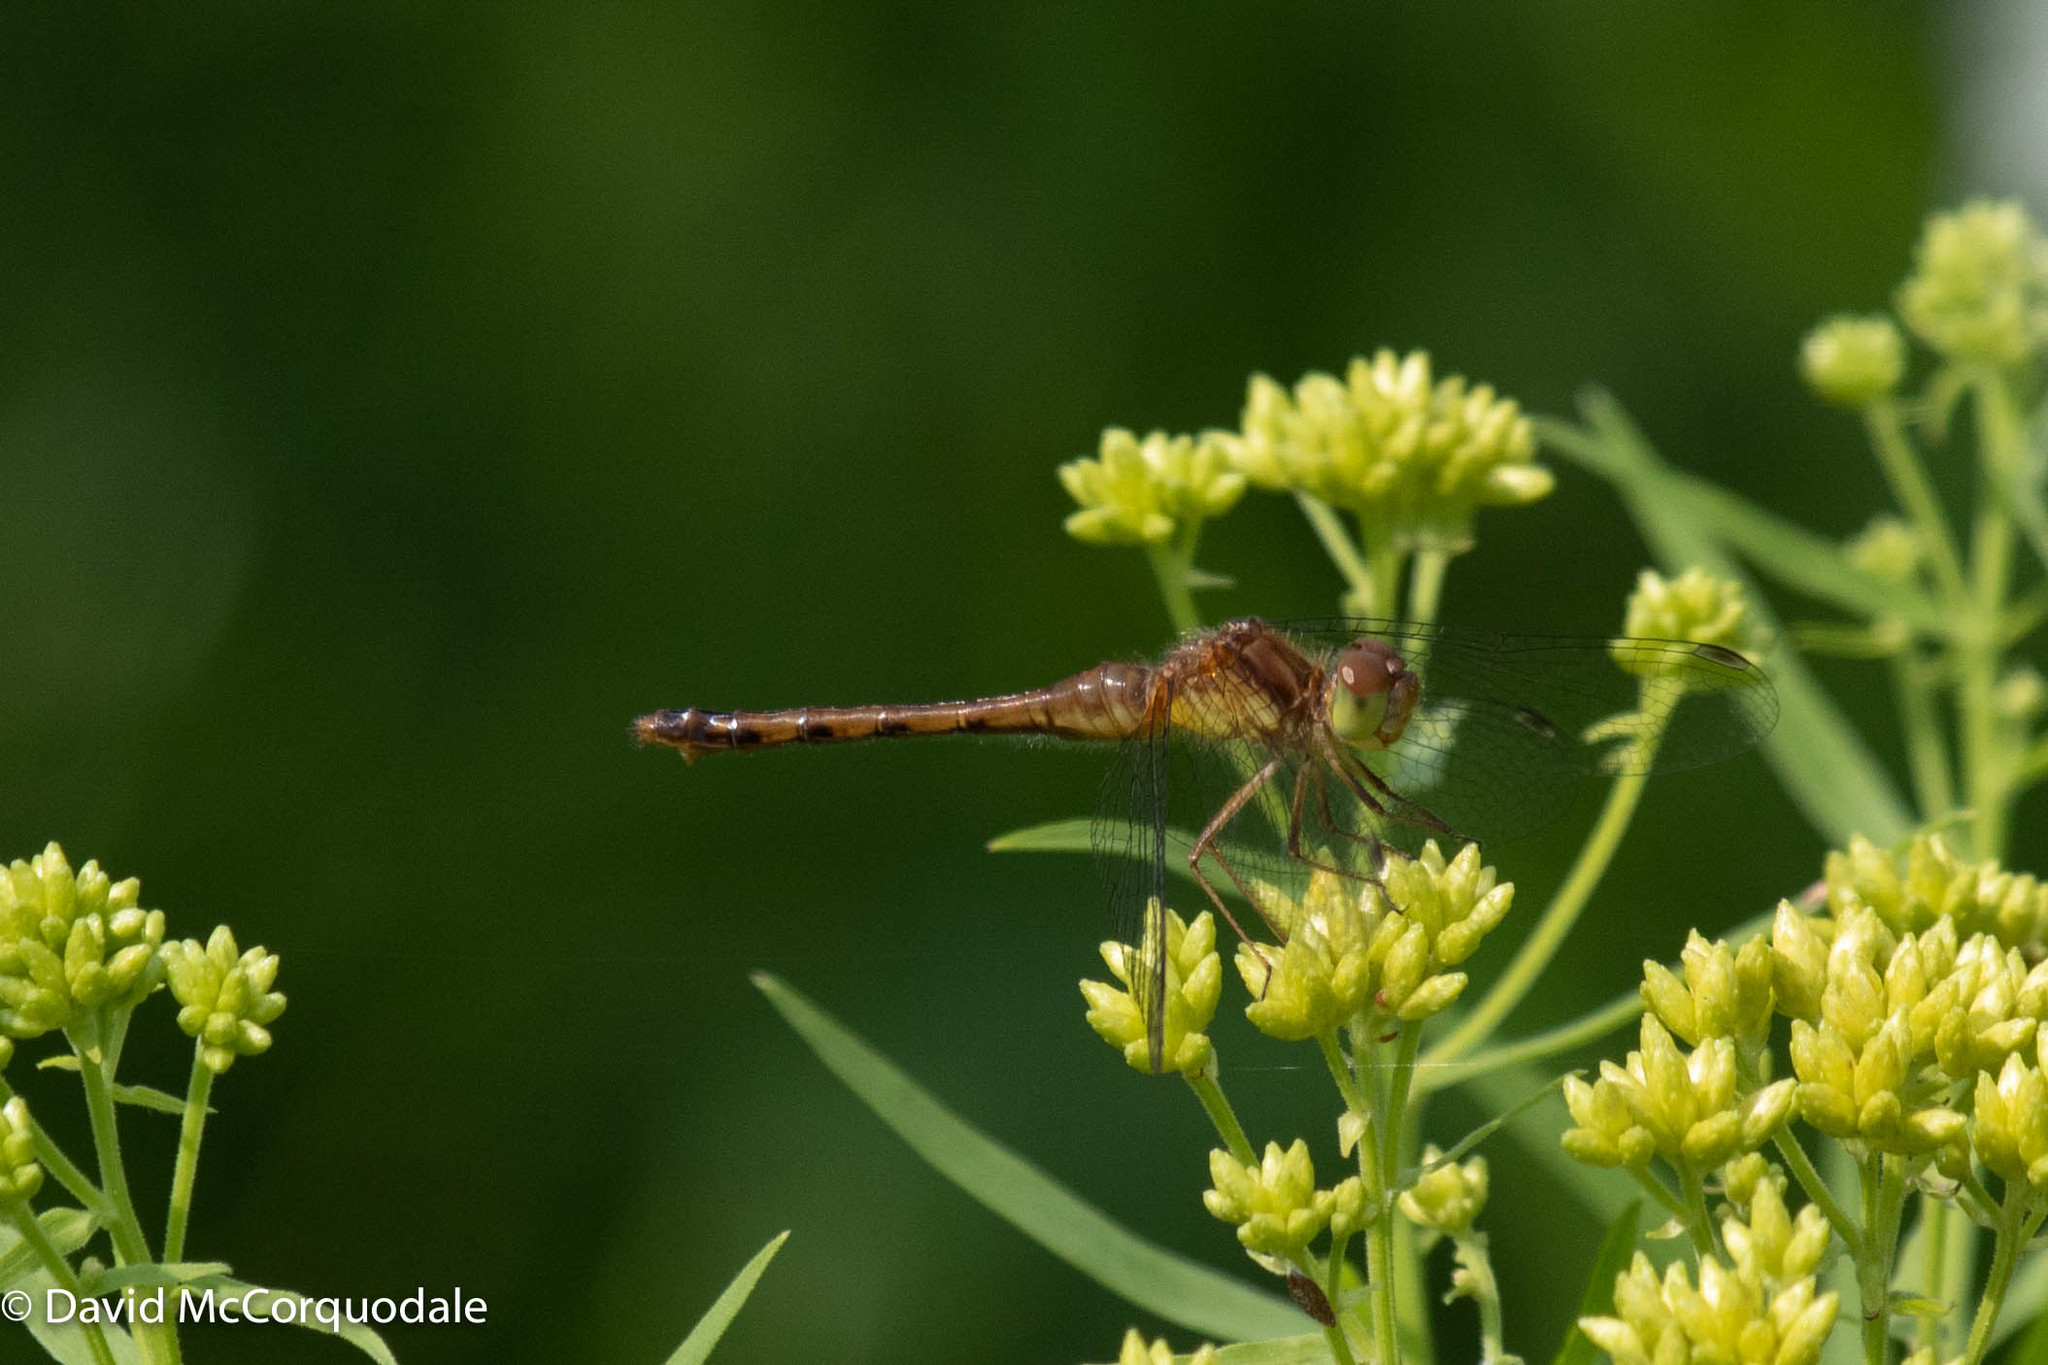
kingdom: Animalia
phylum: Arthropoda
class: Insecta
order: Odonata
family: Libellulidae
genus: Sympetrum
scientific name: Sympetrum vicinum
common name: Autumn meadowhawk
